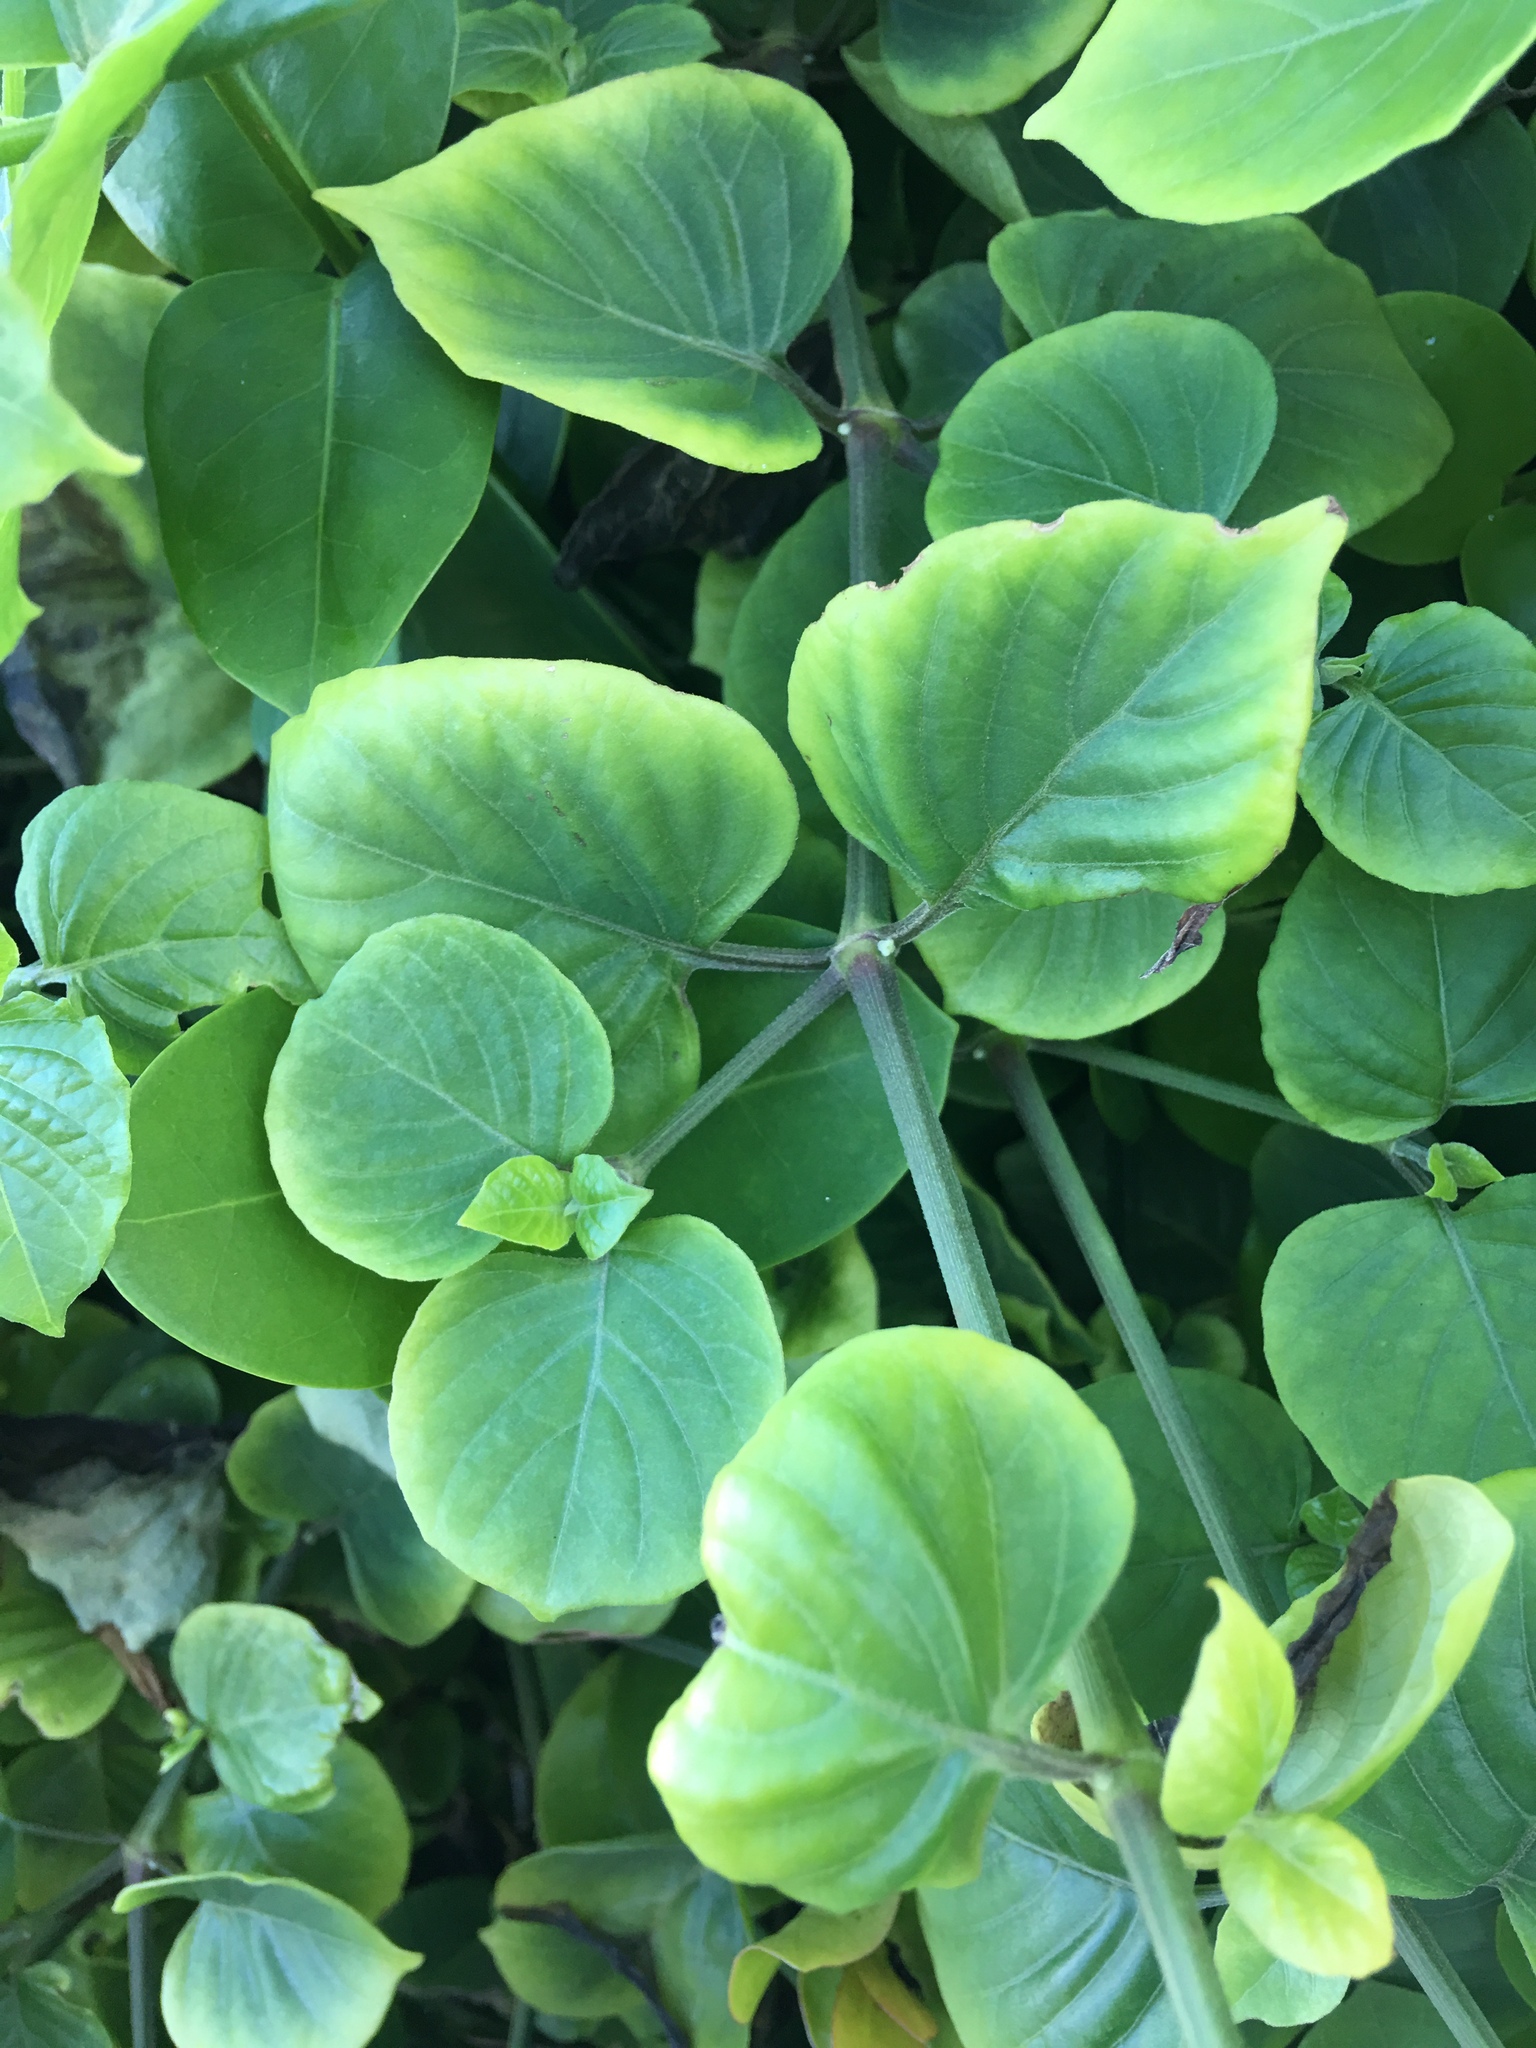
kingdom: Plantae
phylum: Tracheophyta
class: Magnoliopsida
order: Lamiales
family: Acanthaceae
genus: Asystasia
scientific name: Asystasia gangetica
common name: Chinese violet
